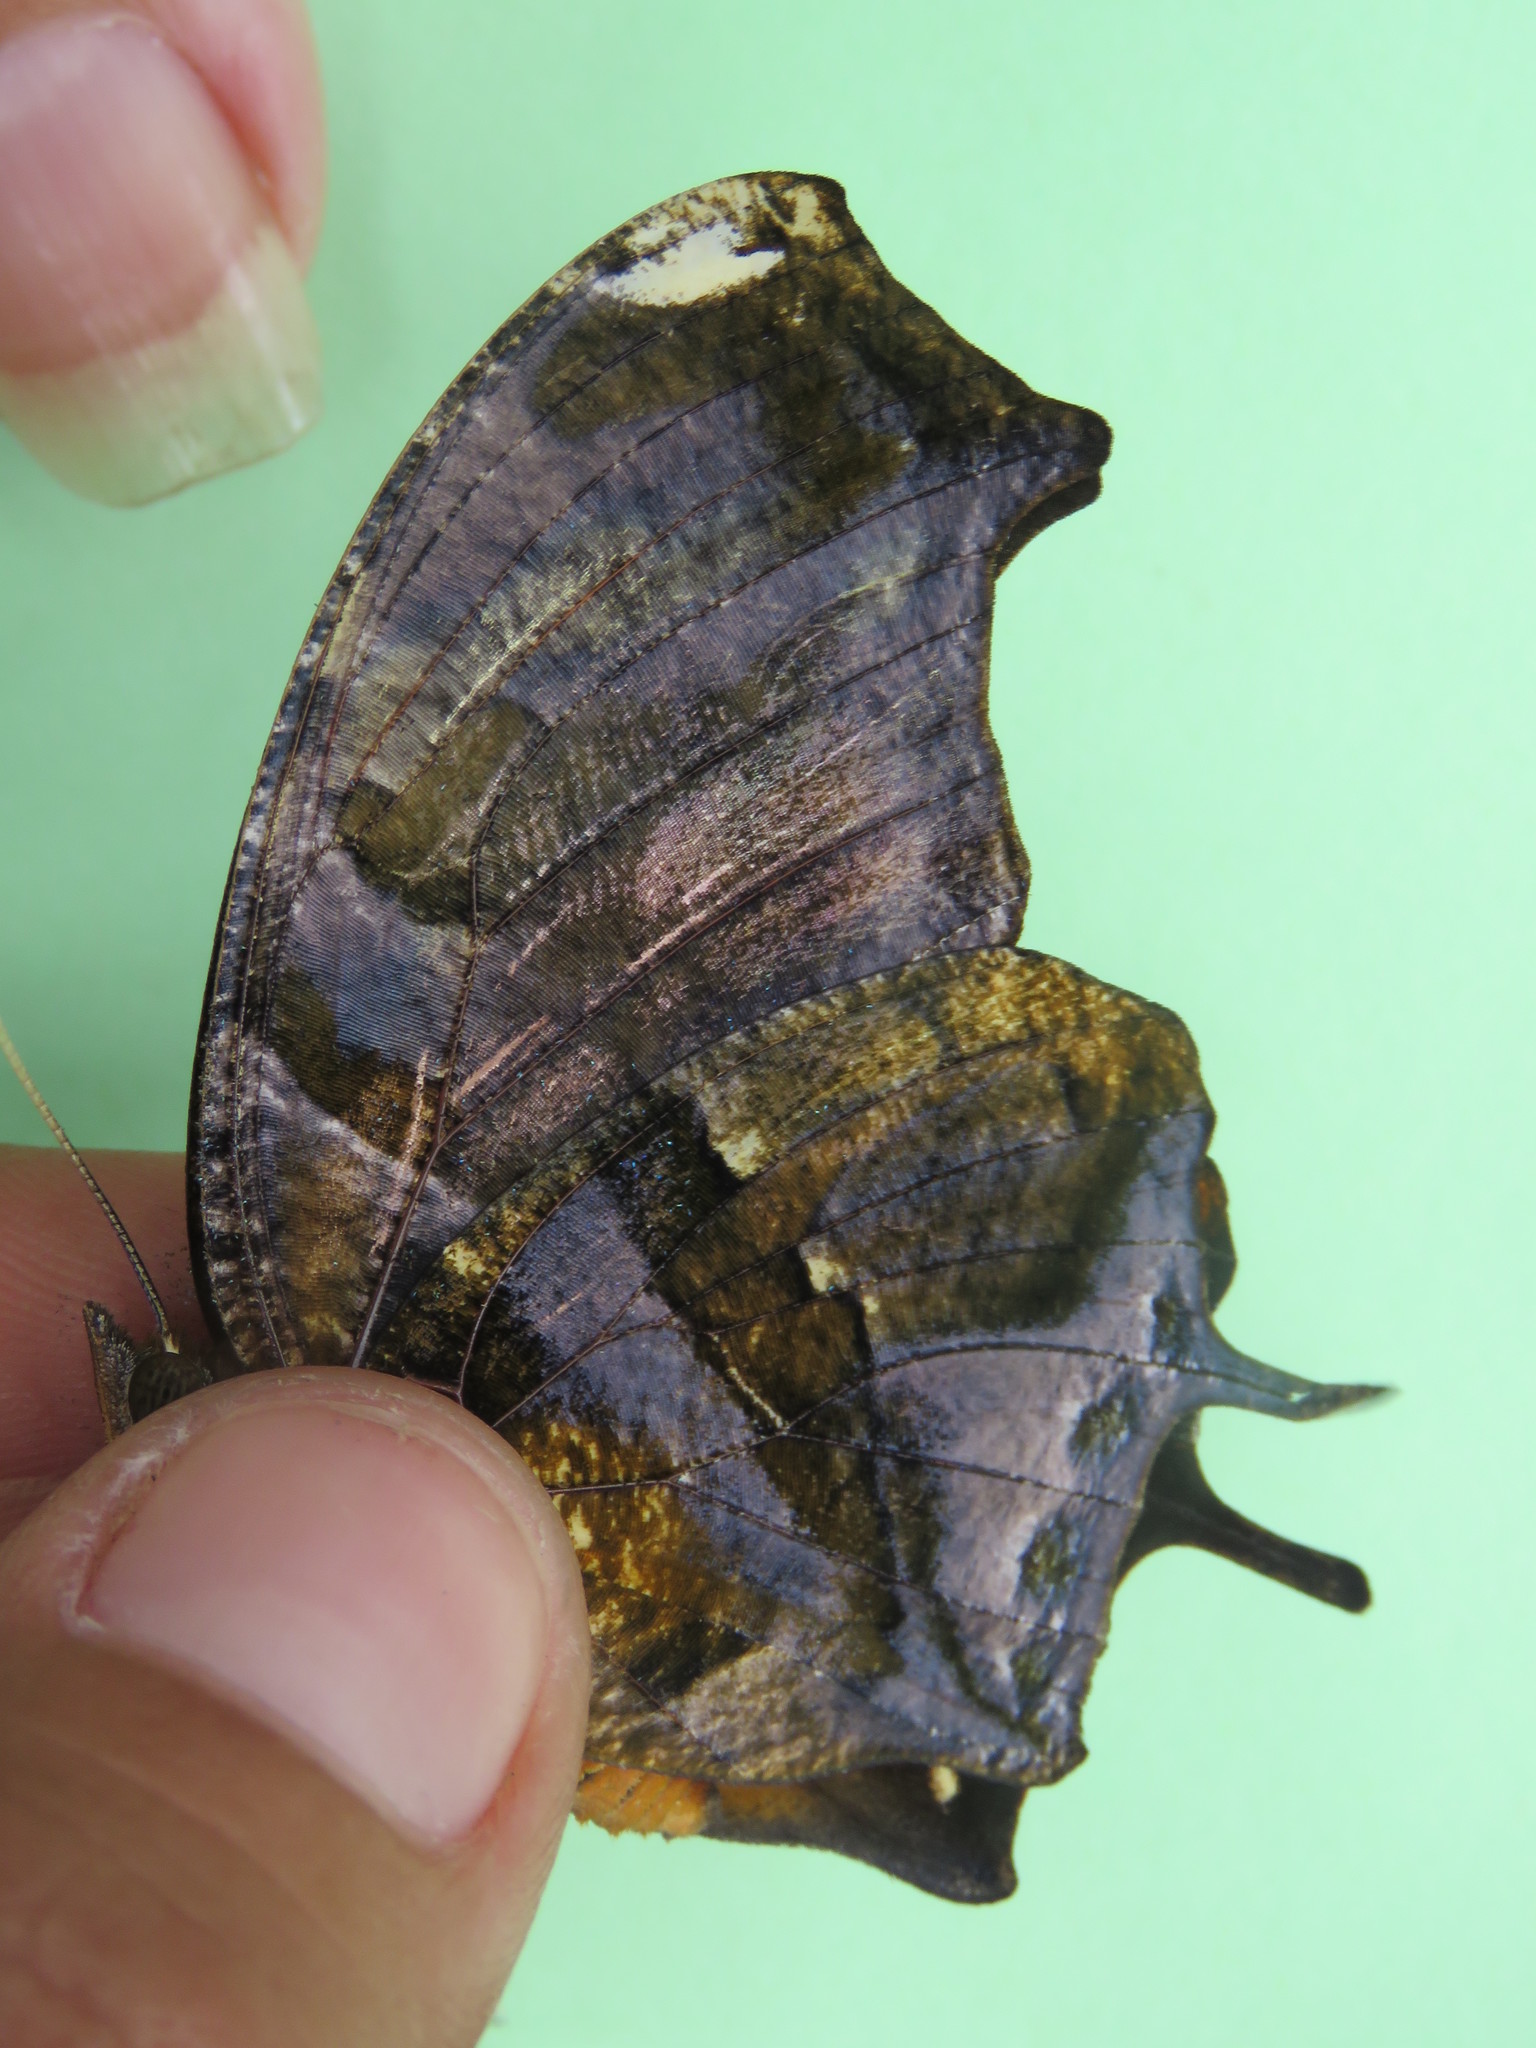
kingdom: Animalia
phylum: Arthropoda
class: Insecta
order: Lepidoptera
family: Nymphalidae
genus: Consul
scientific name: Consul fabius
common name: Tiger leafwing
